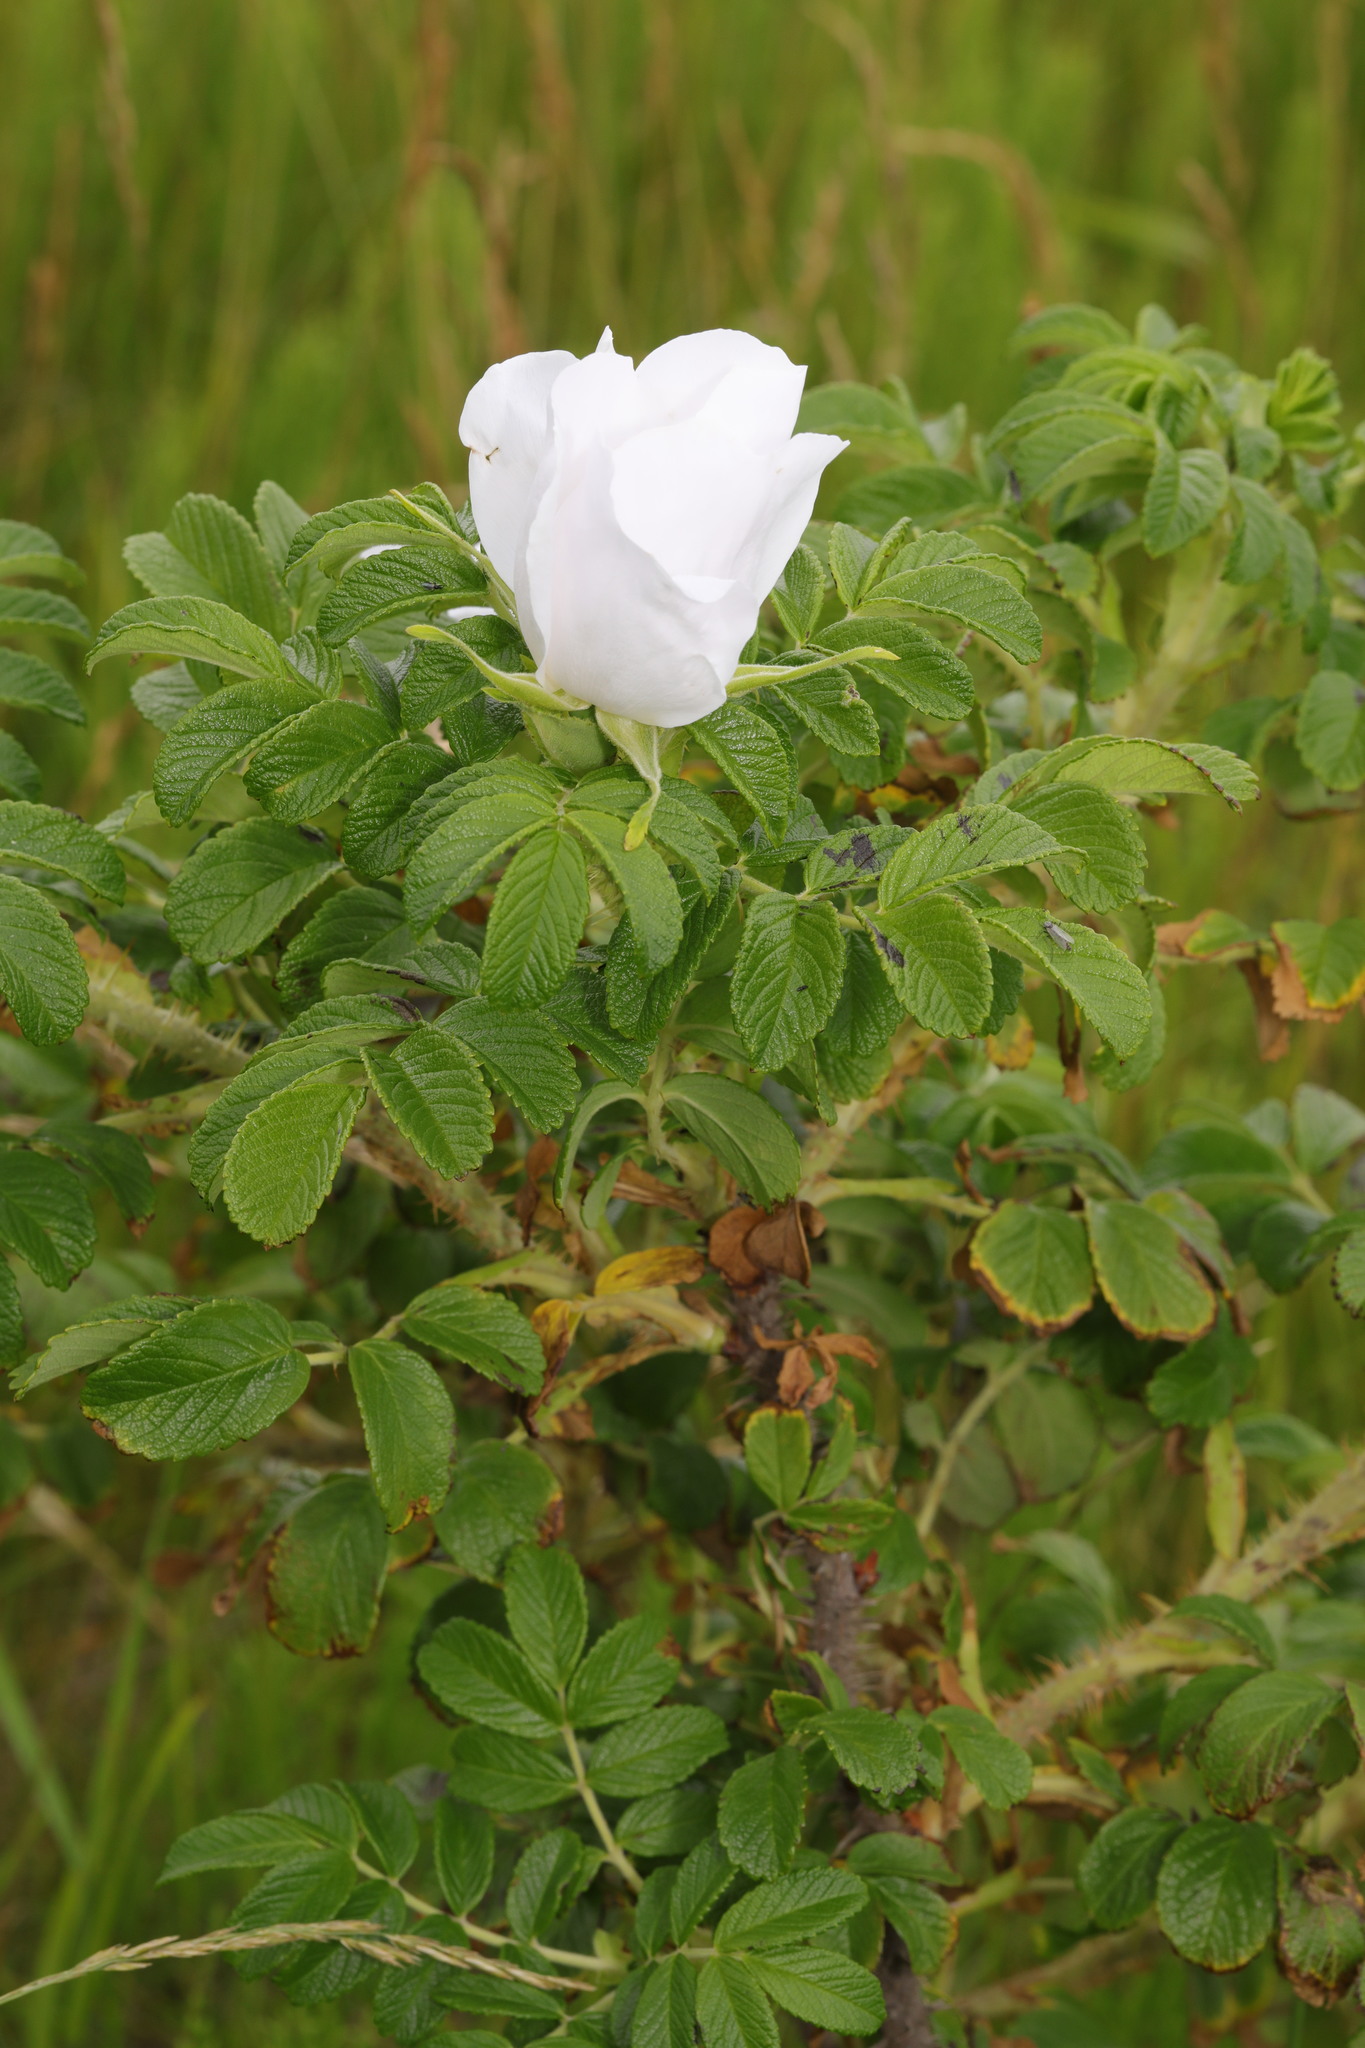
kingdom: Plantae
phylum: Tracheophyta
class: Magnoliopsida
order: Rosales
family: Rosaceae
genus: Rosa
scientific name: Rosa rugosa
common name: Japanese rose
